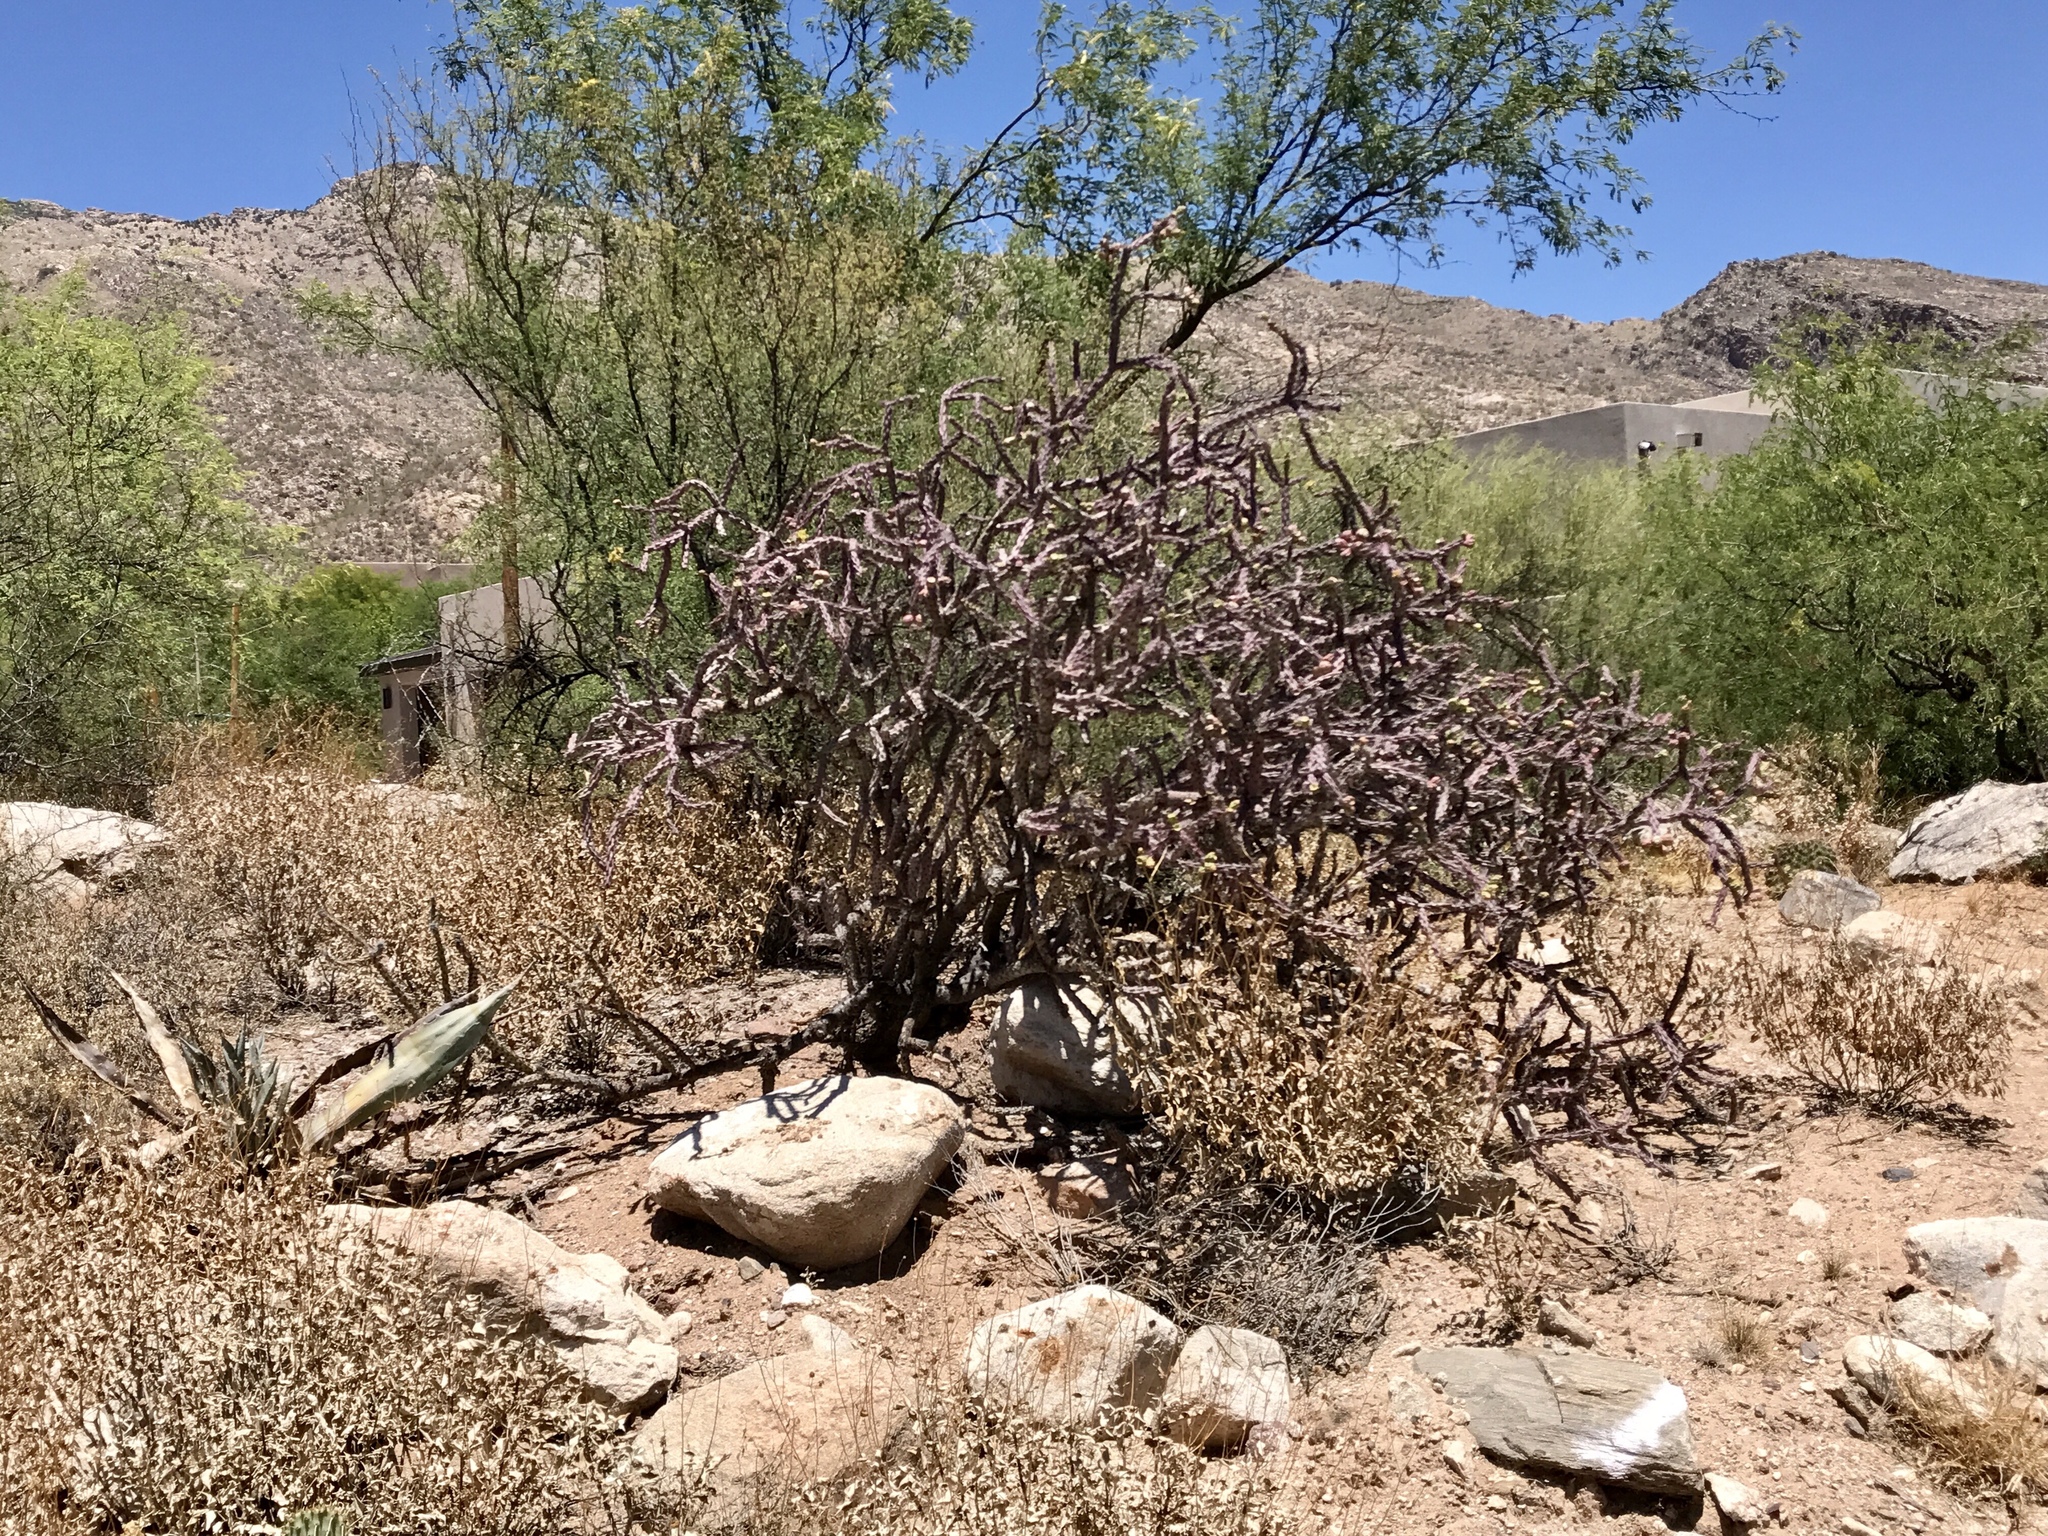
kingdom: Plantae
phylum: Tracheophyta
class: Magnoliopsida
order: Caryophyllales
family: Cactaceae
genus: Cylindropuntia
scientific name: Cylindropuntia thurberi
